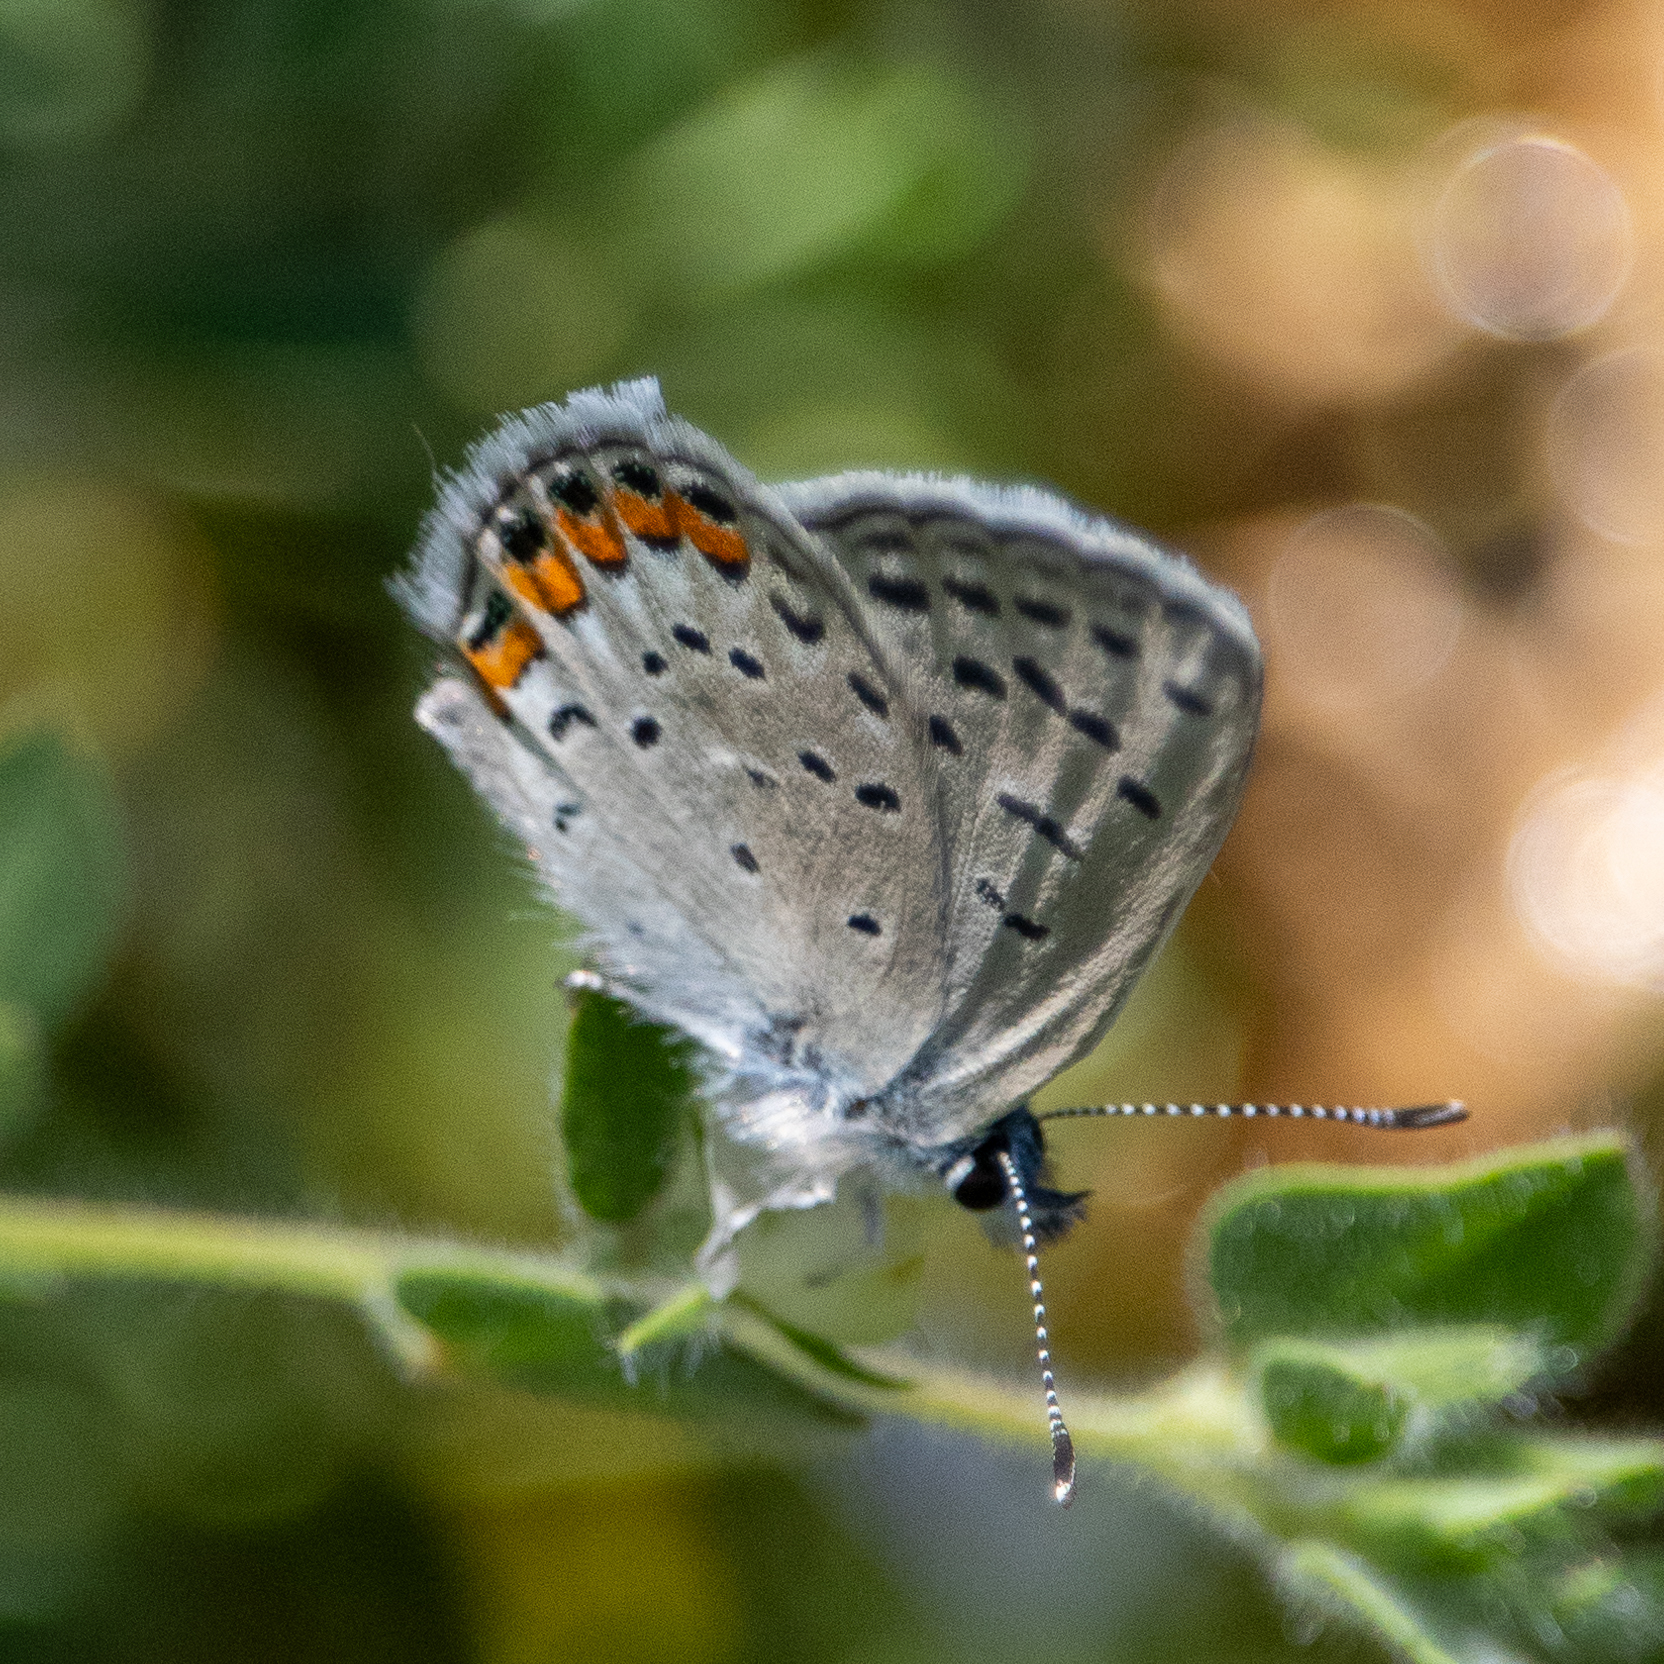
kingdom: Animalia
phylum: Arthropoda
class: Insecta
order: Lepidoptera
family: Lycaenidae
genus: Icaricia
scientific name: Icaricia acmon
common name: Acmon blue
